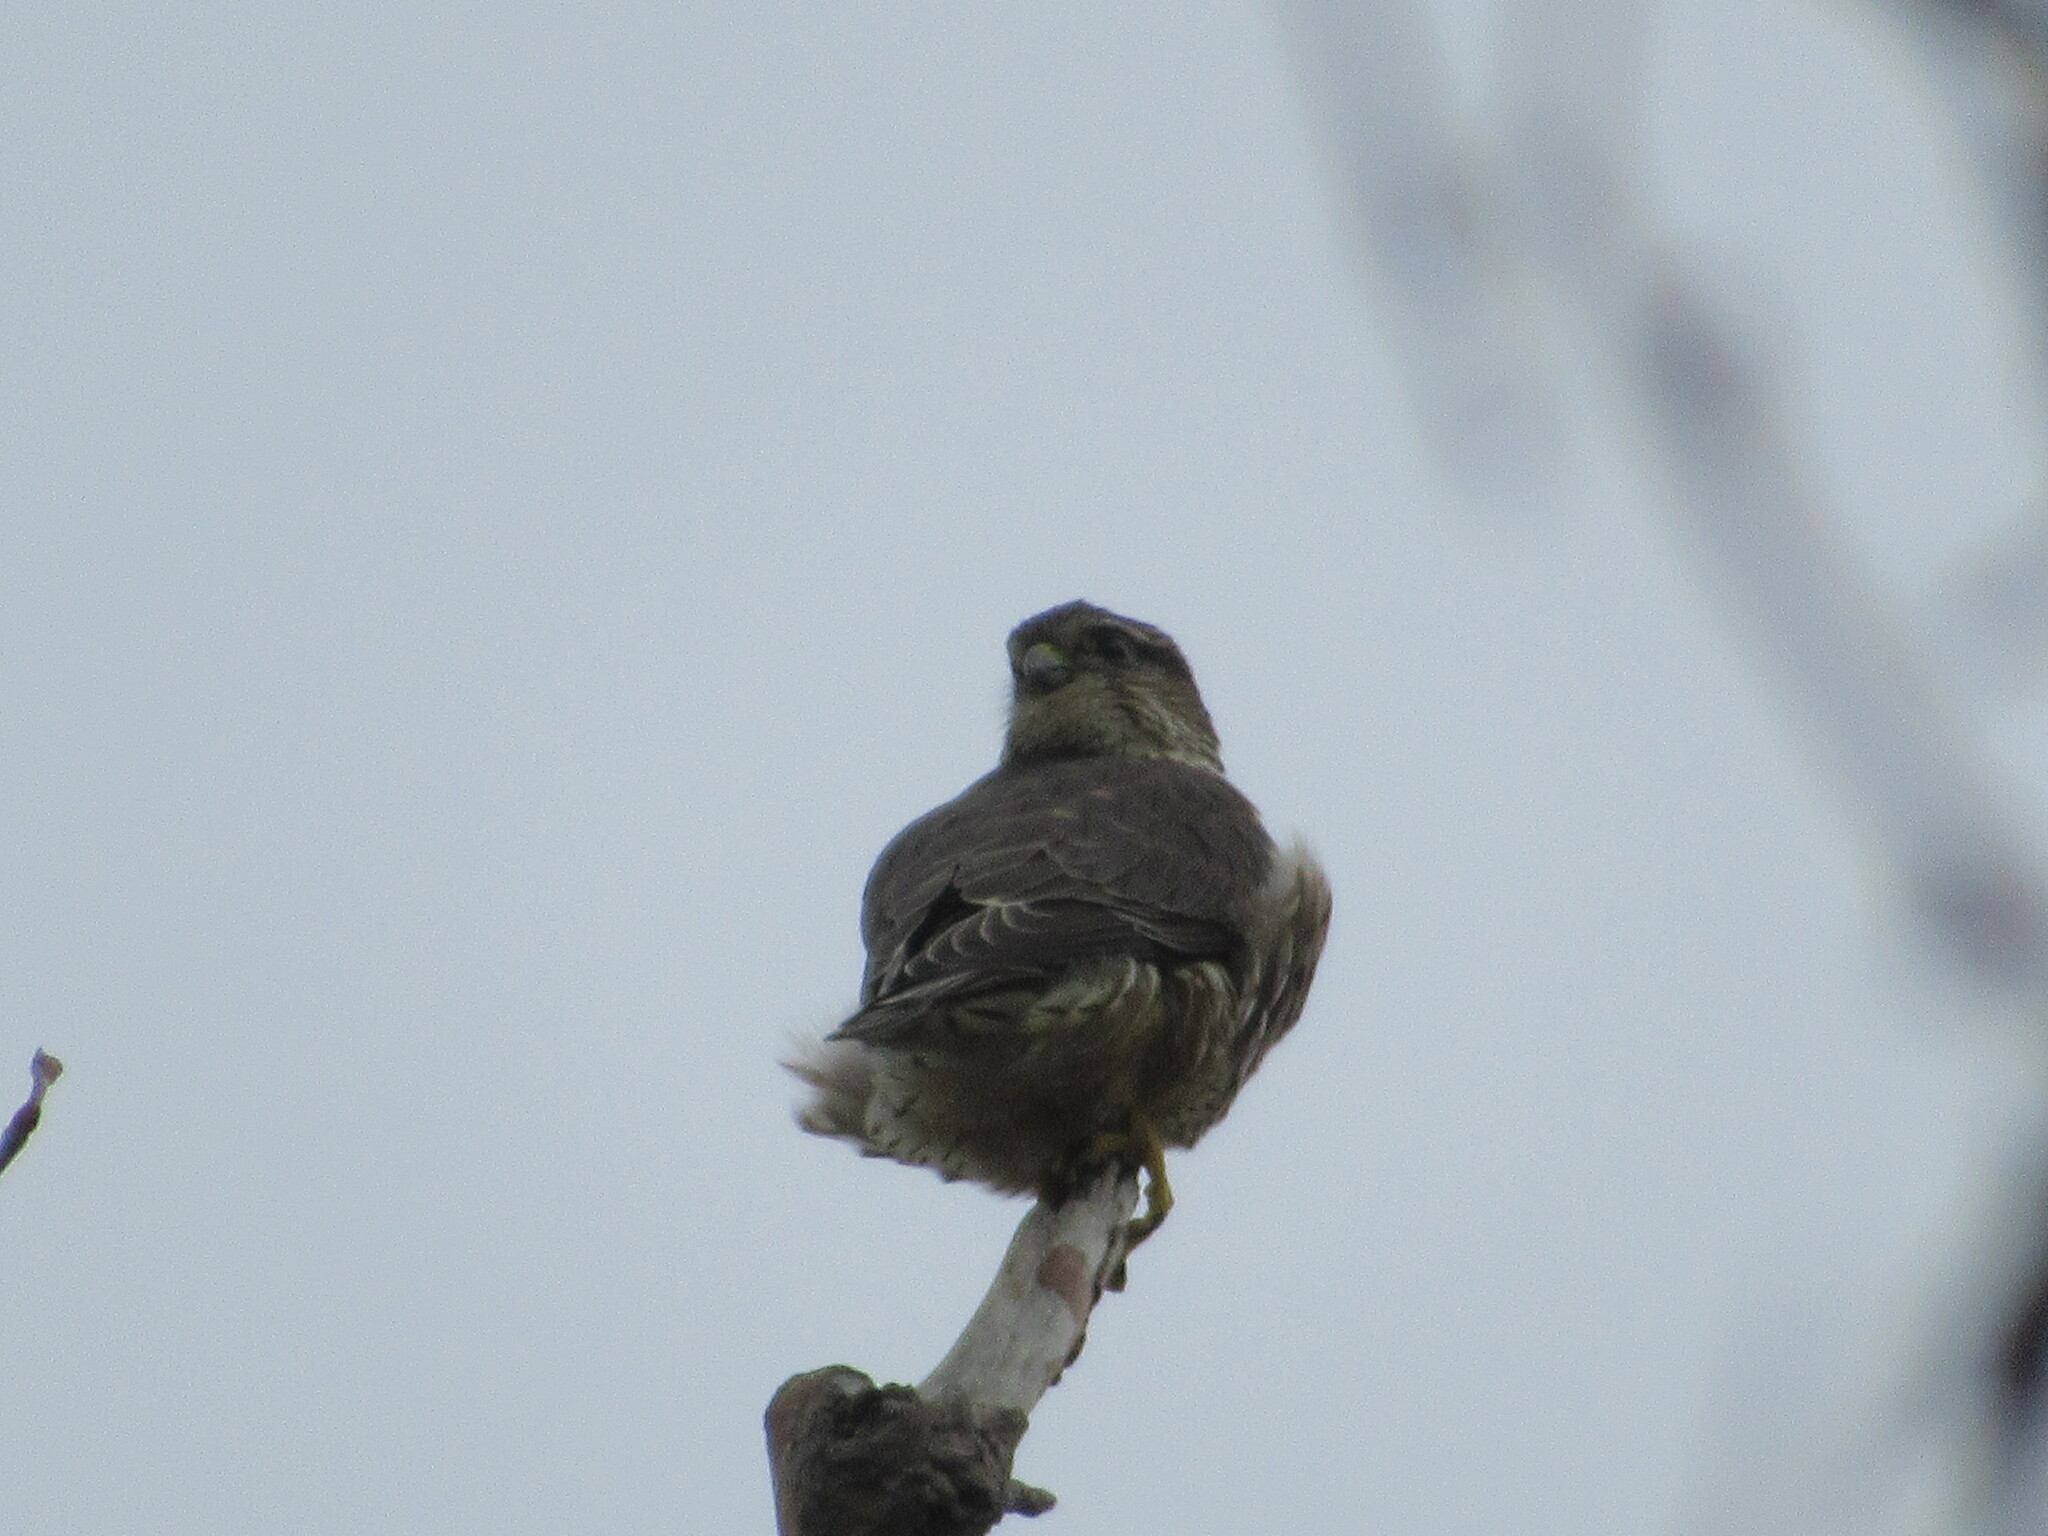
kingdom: Animalia
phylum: Chordata
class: Aves
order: Falconiformes
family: Falconidae
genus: Falco
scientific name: Falco columbarius
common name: Merlin
